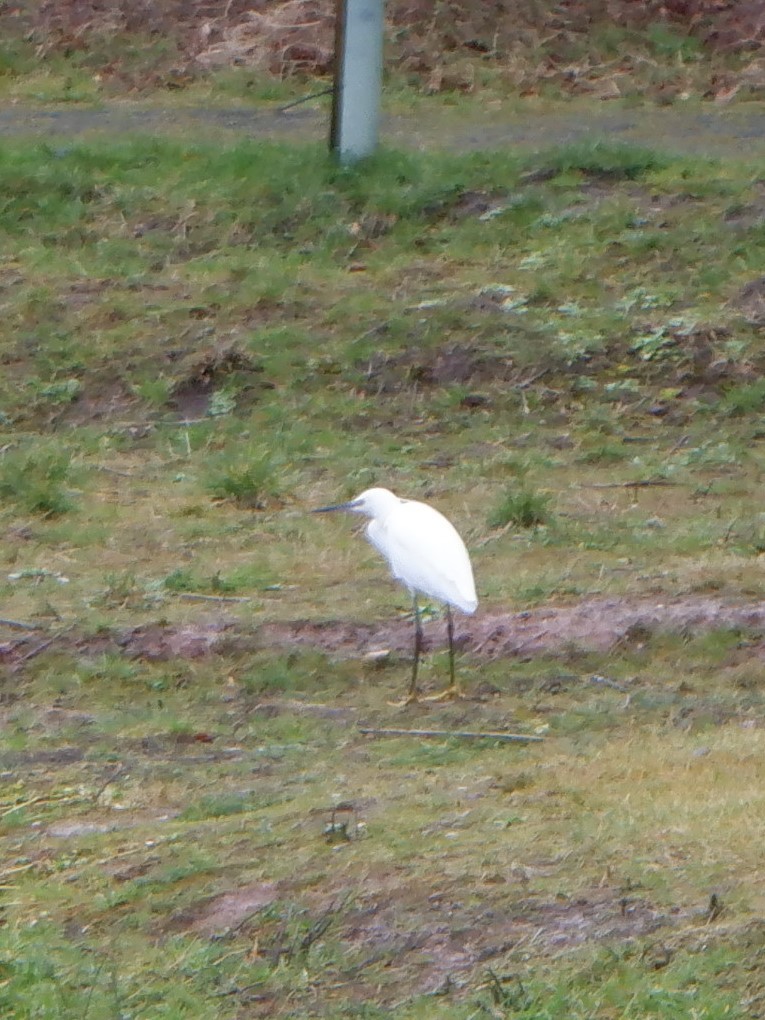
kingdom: Animalia
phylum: Chordata
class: Aves
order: Pelecaniformes
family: Ardeidae
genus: Egretta
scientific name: Egretta garzetta
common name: Little egret
